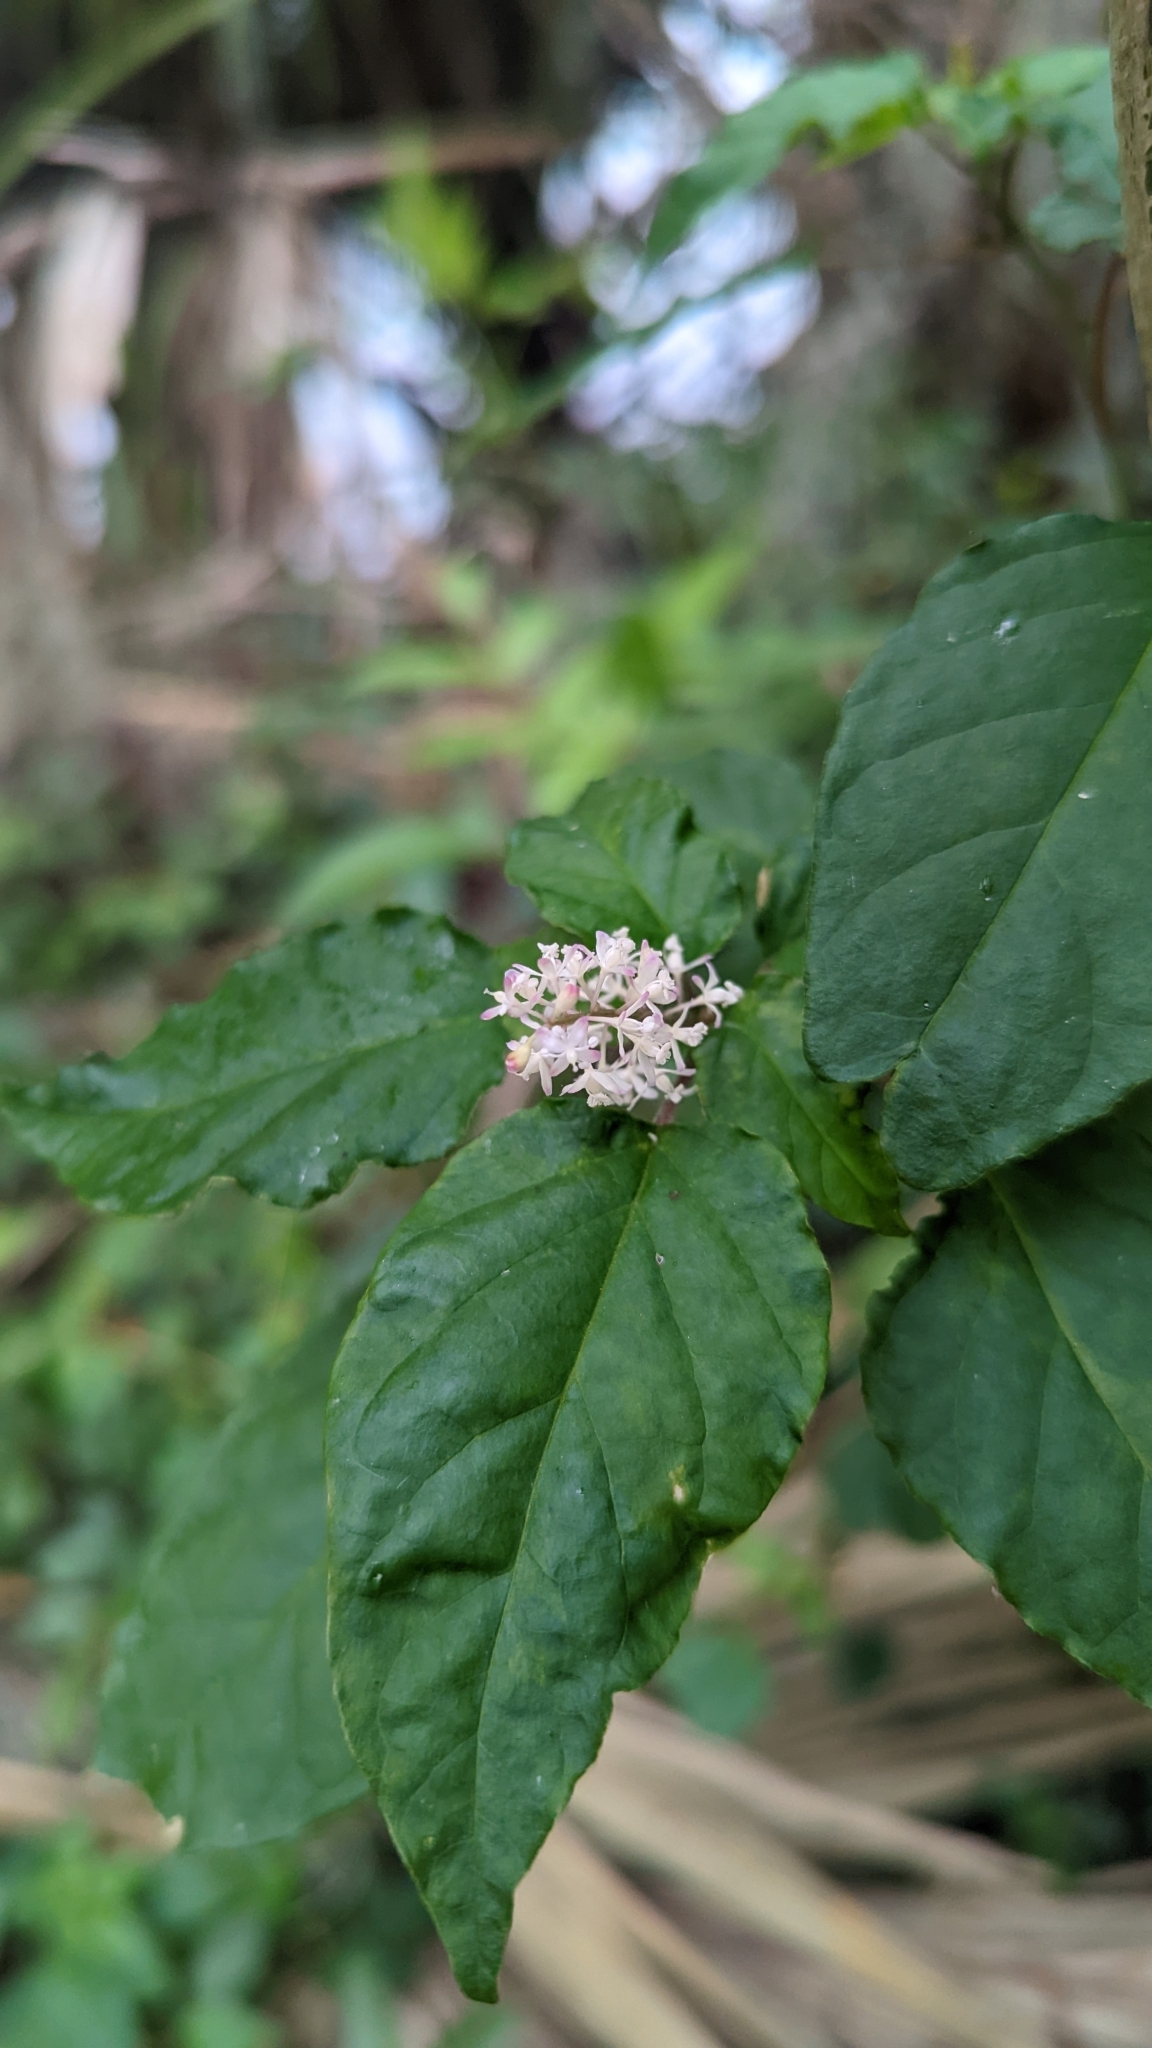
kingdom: Plantae
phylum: Tracheophyta
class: Magnoliopsida
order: Caryophyllales
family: Phytolaccaceae
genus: Rivina
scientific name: Rivina humilis
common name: Rougeplant
